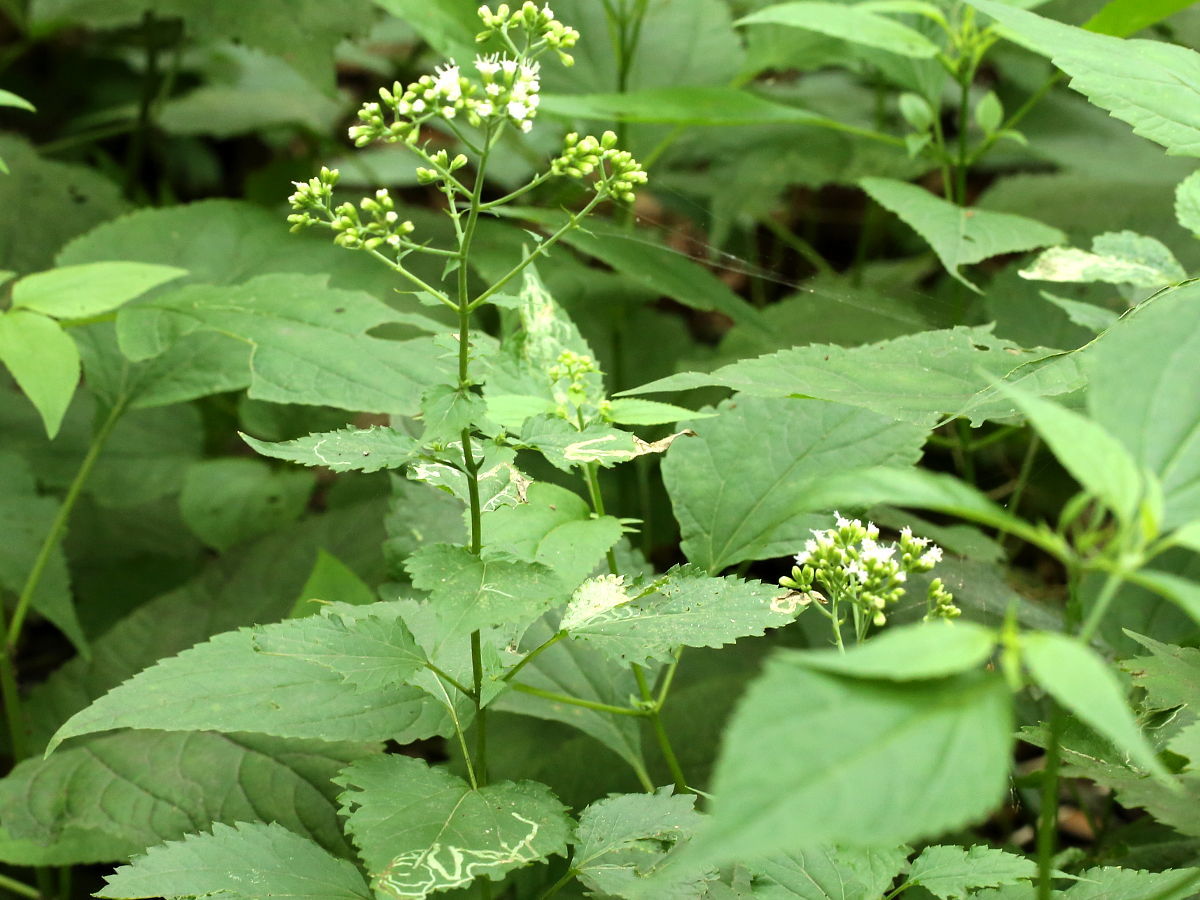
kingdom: Plantae
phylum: Tracheophyta
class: Magnoliopsida
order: Asterales
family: Asteraceae
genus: Ageratina
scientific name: Ageratina altissima
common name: White snakeroot
